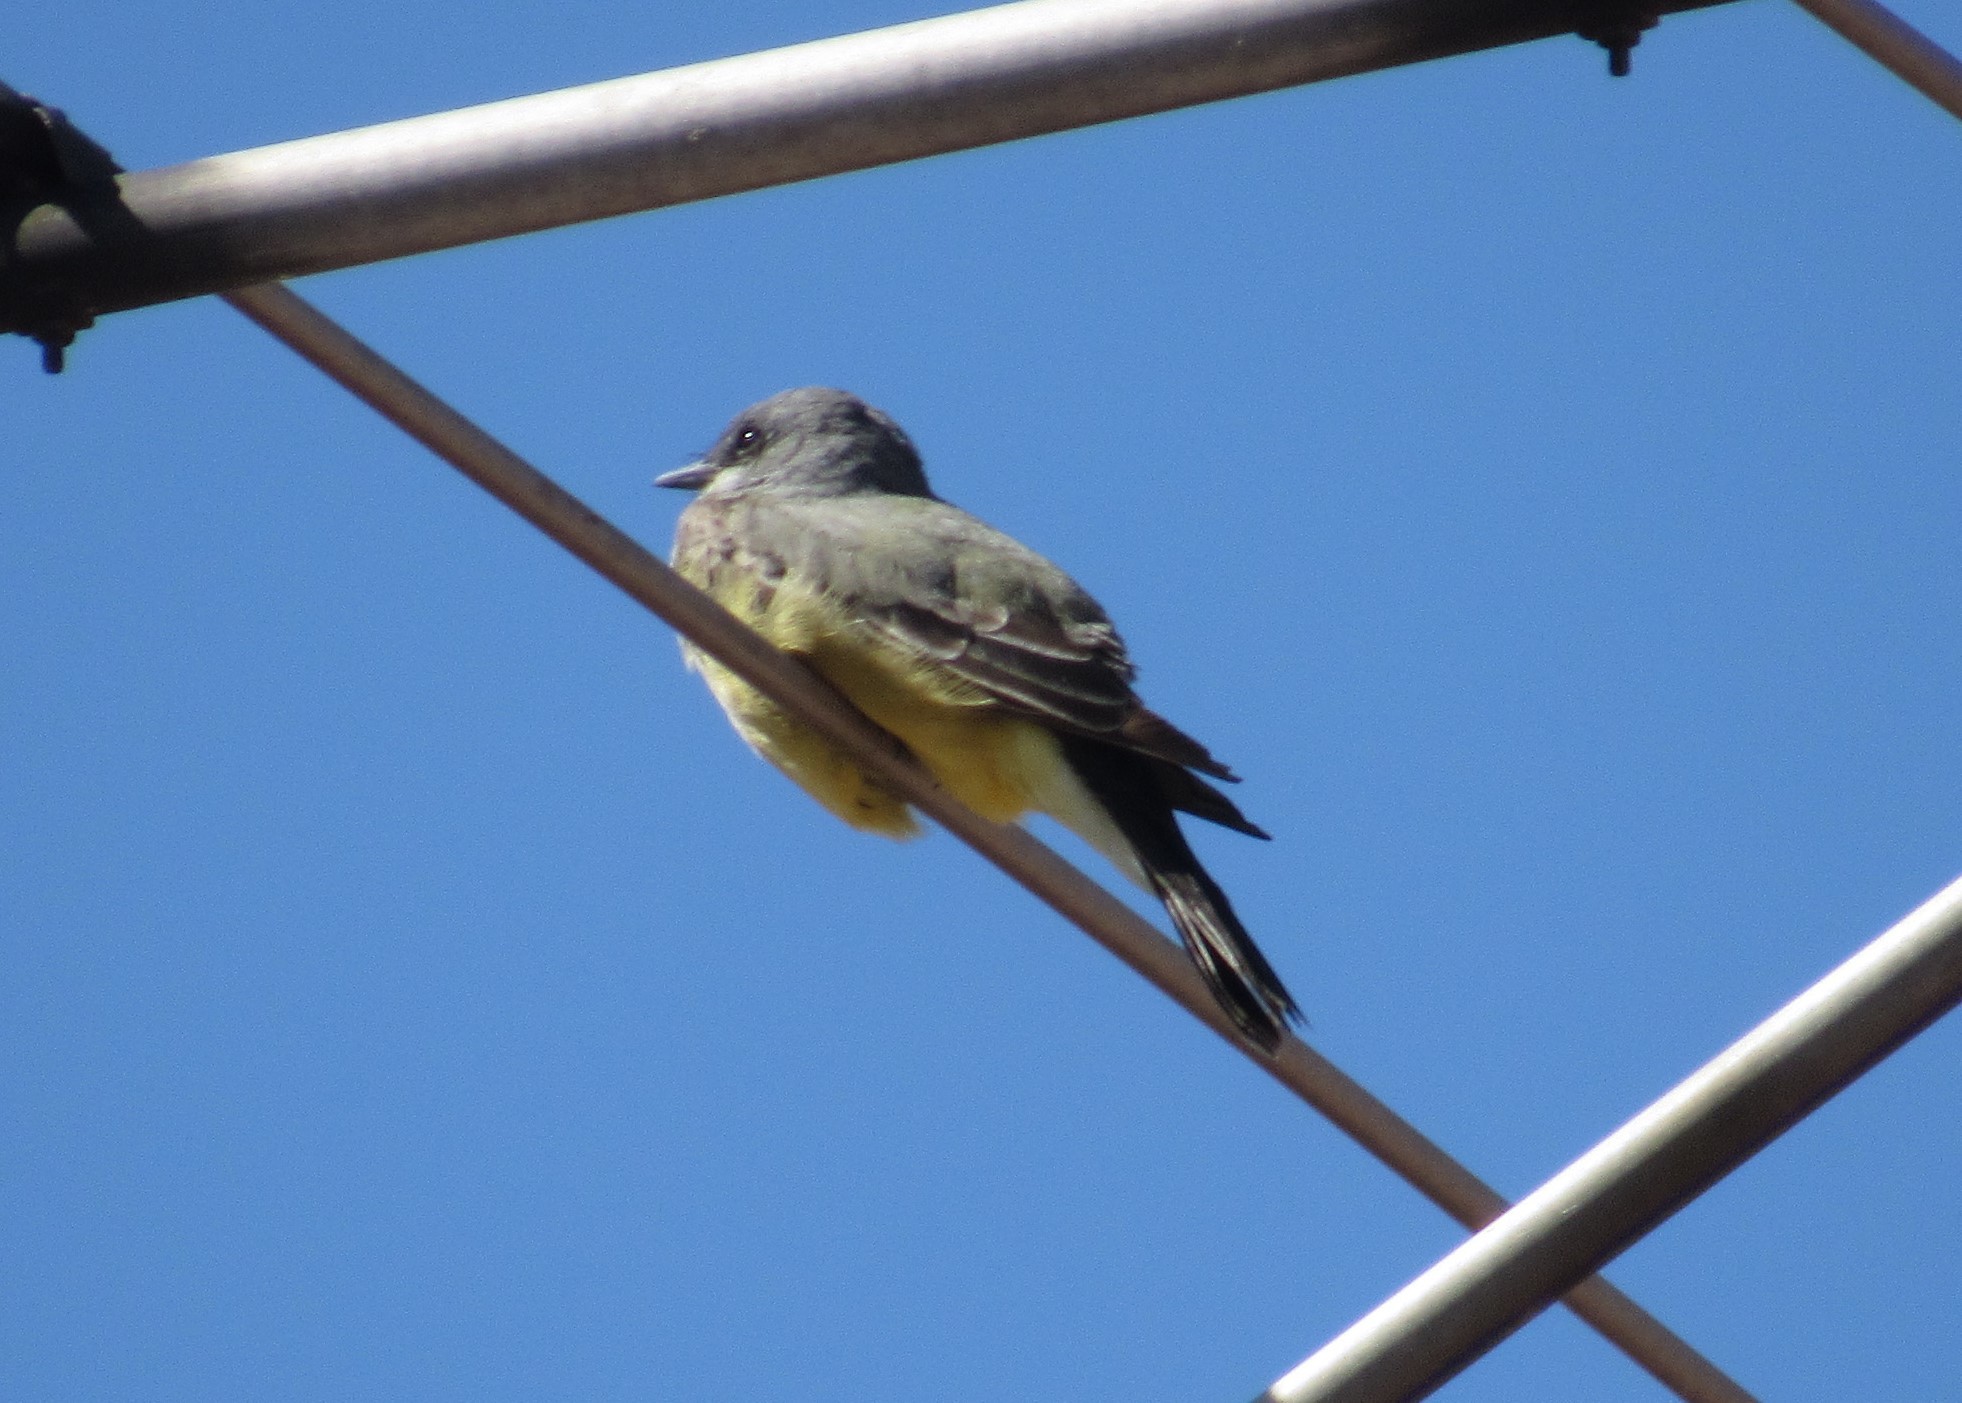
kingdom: Animalia
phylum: Chordata
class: Aves
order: Passeriformes
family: Tyrannidae
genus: Tyrannus
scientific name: Tyrannus vociferans
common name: Cassin's kingbird
